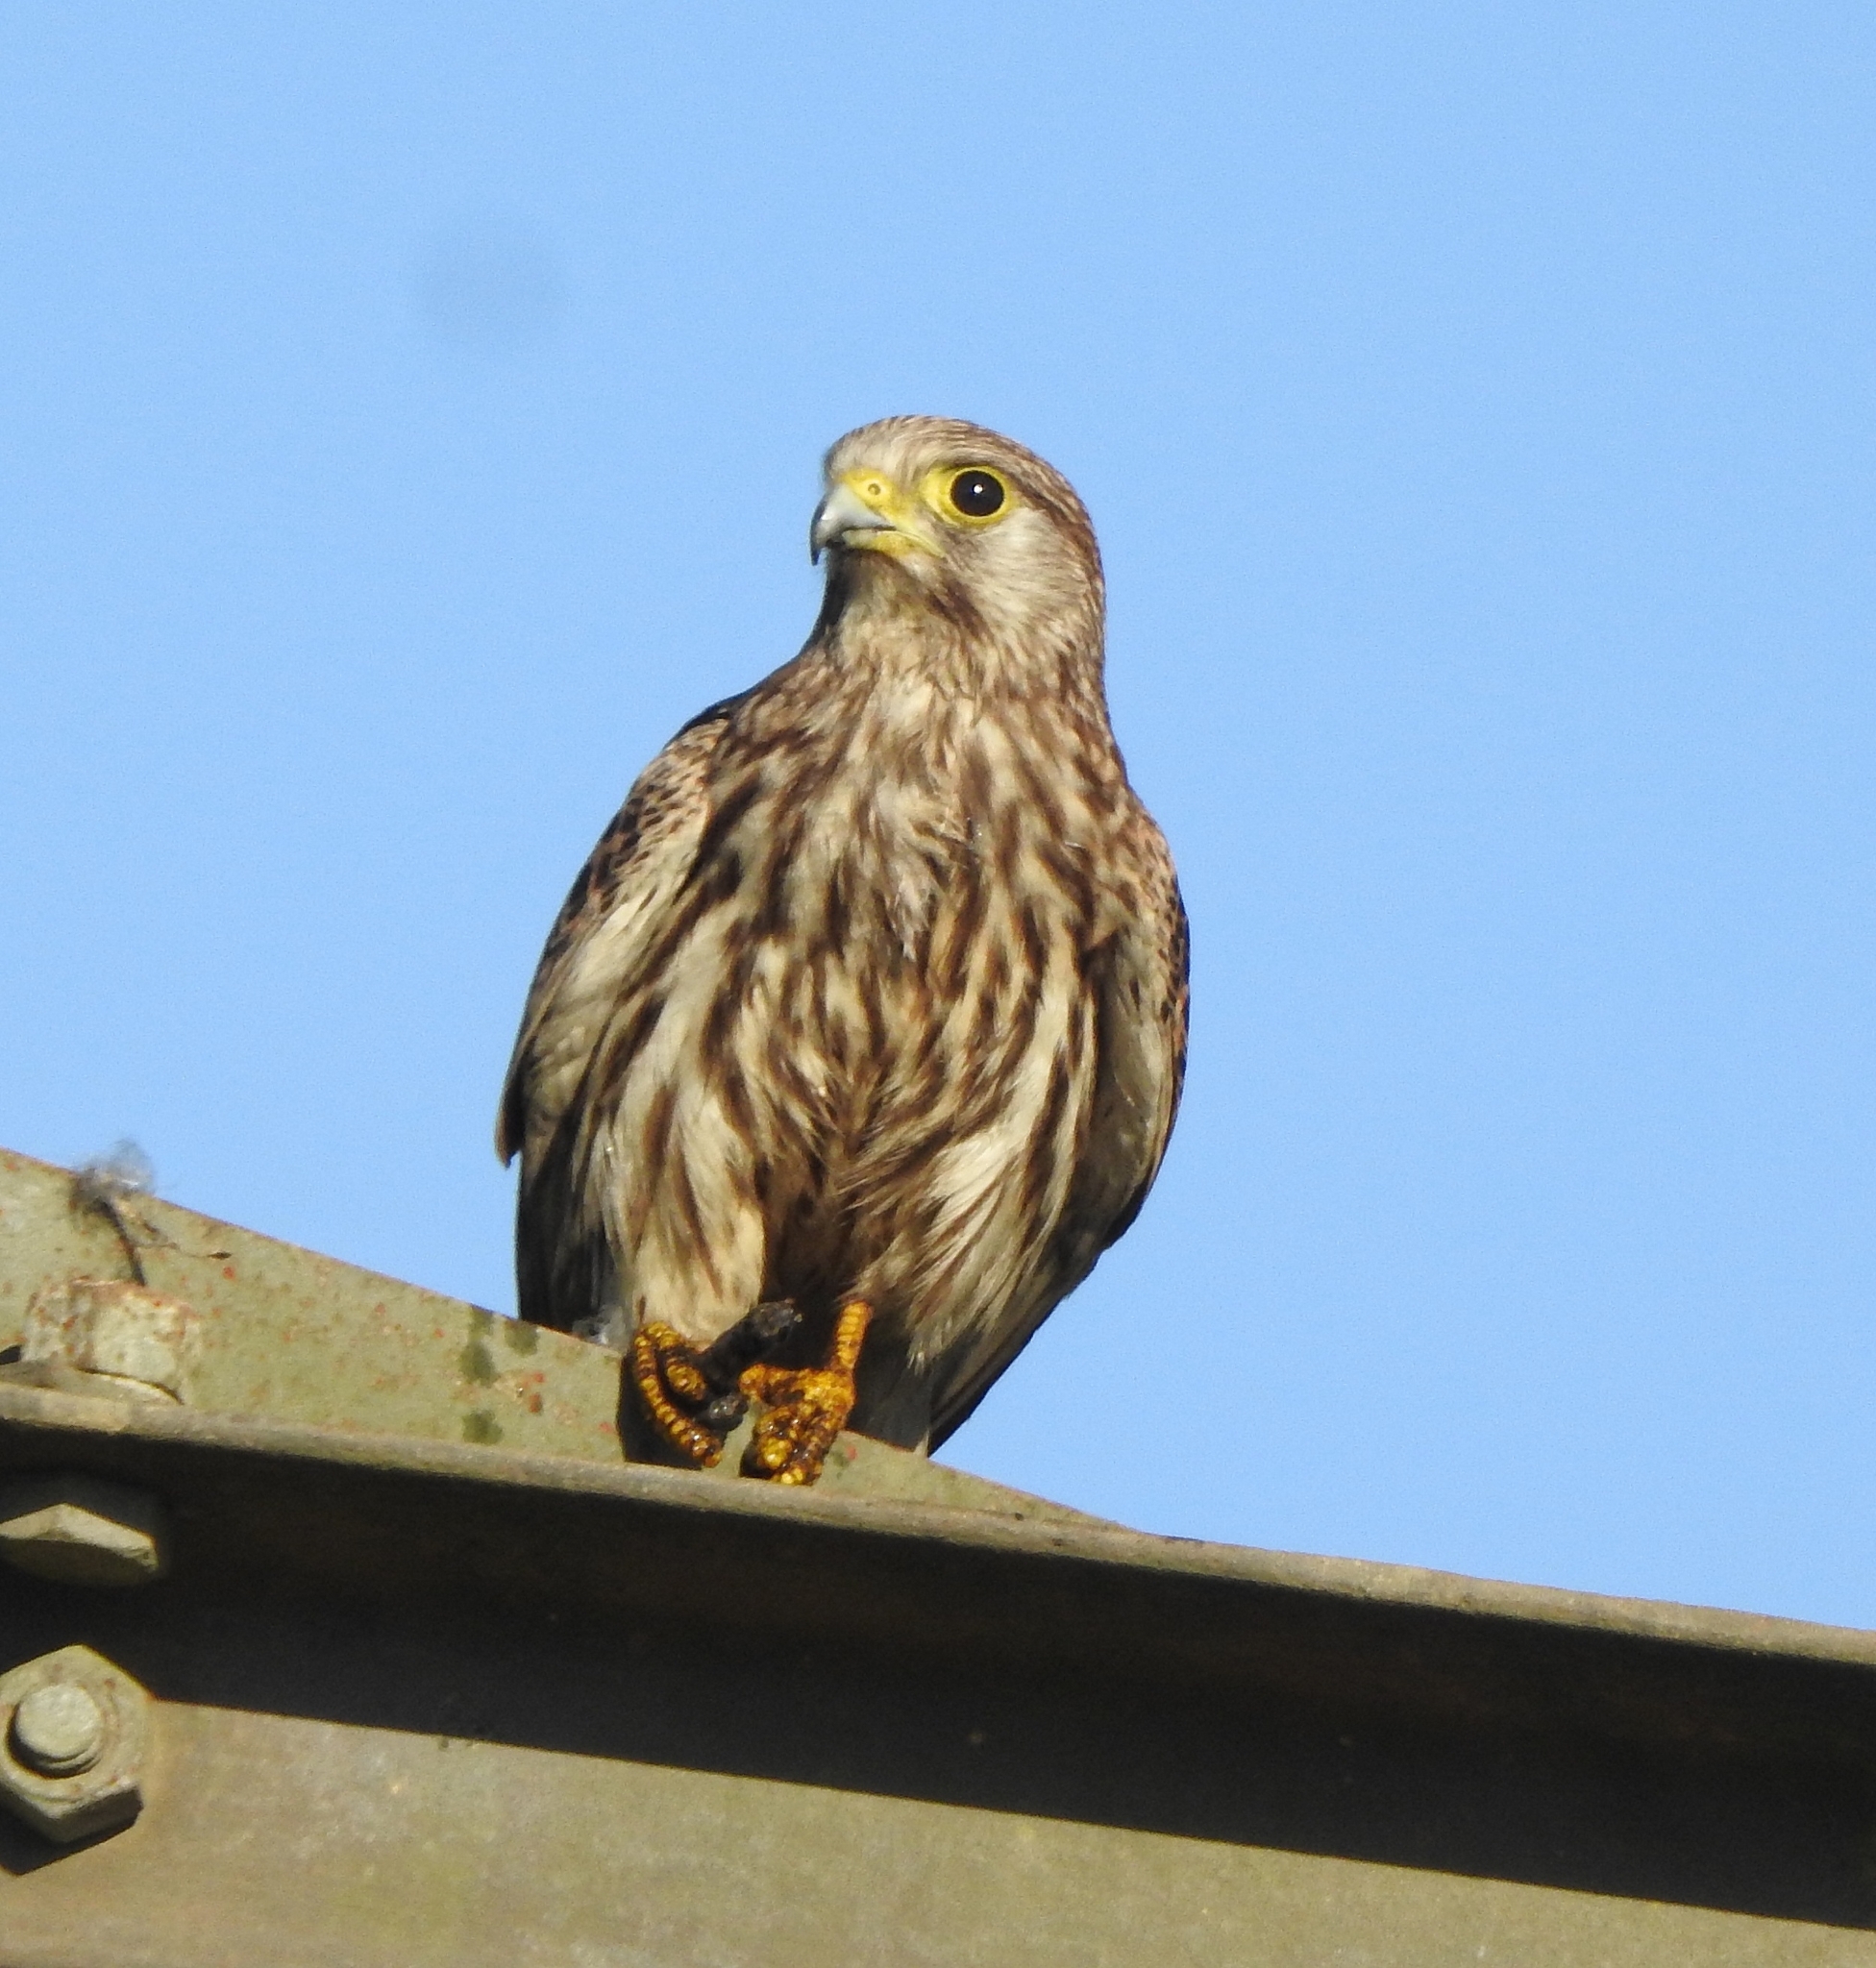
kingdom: Animalia
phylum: Chordata
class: Aves
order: Falconiformes
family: Falconidae
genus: Falco
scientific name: Falco tinnunculus
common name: Common kestrel
